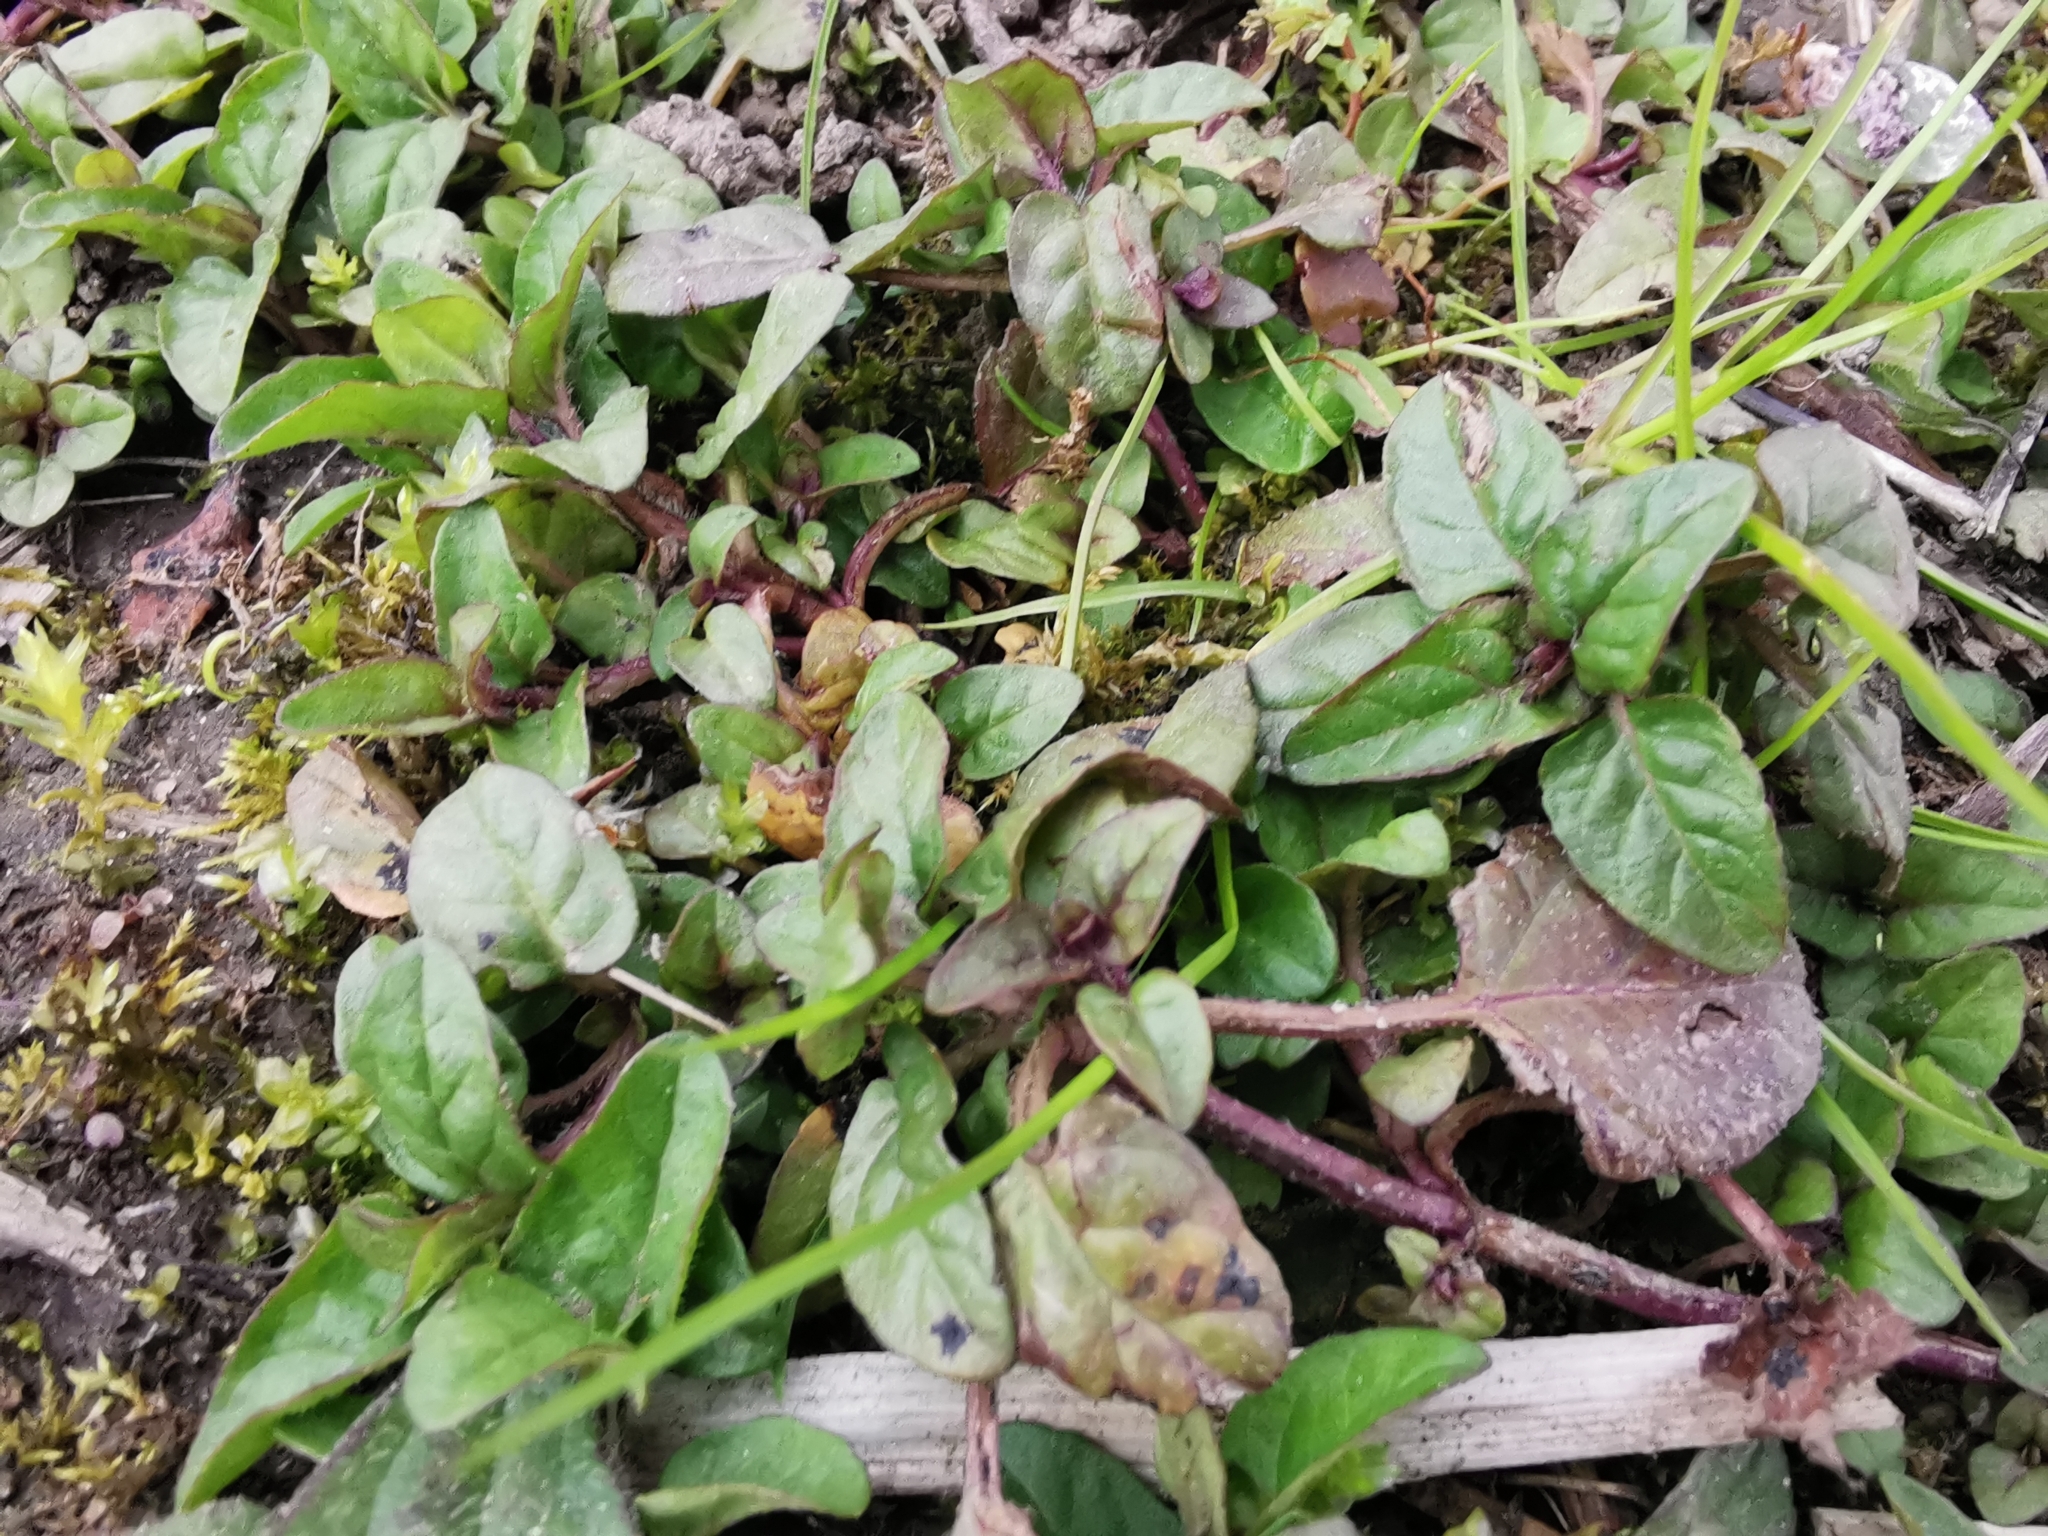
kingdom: Plantae
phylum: Tracheophyta
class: Magnoliopsida
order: Lamiales
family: Lamiaceae
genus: Prunella
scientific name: Prunella vulgaris
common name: Heal-all
